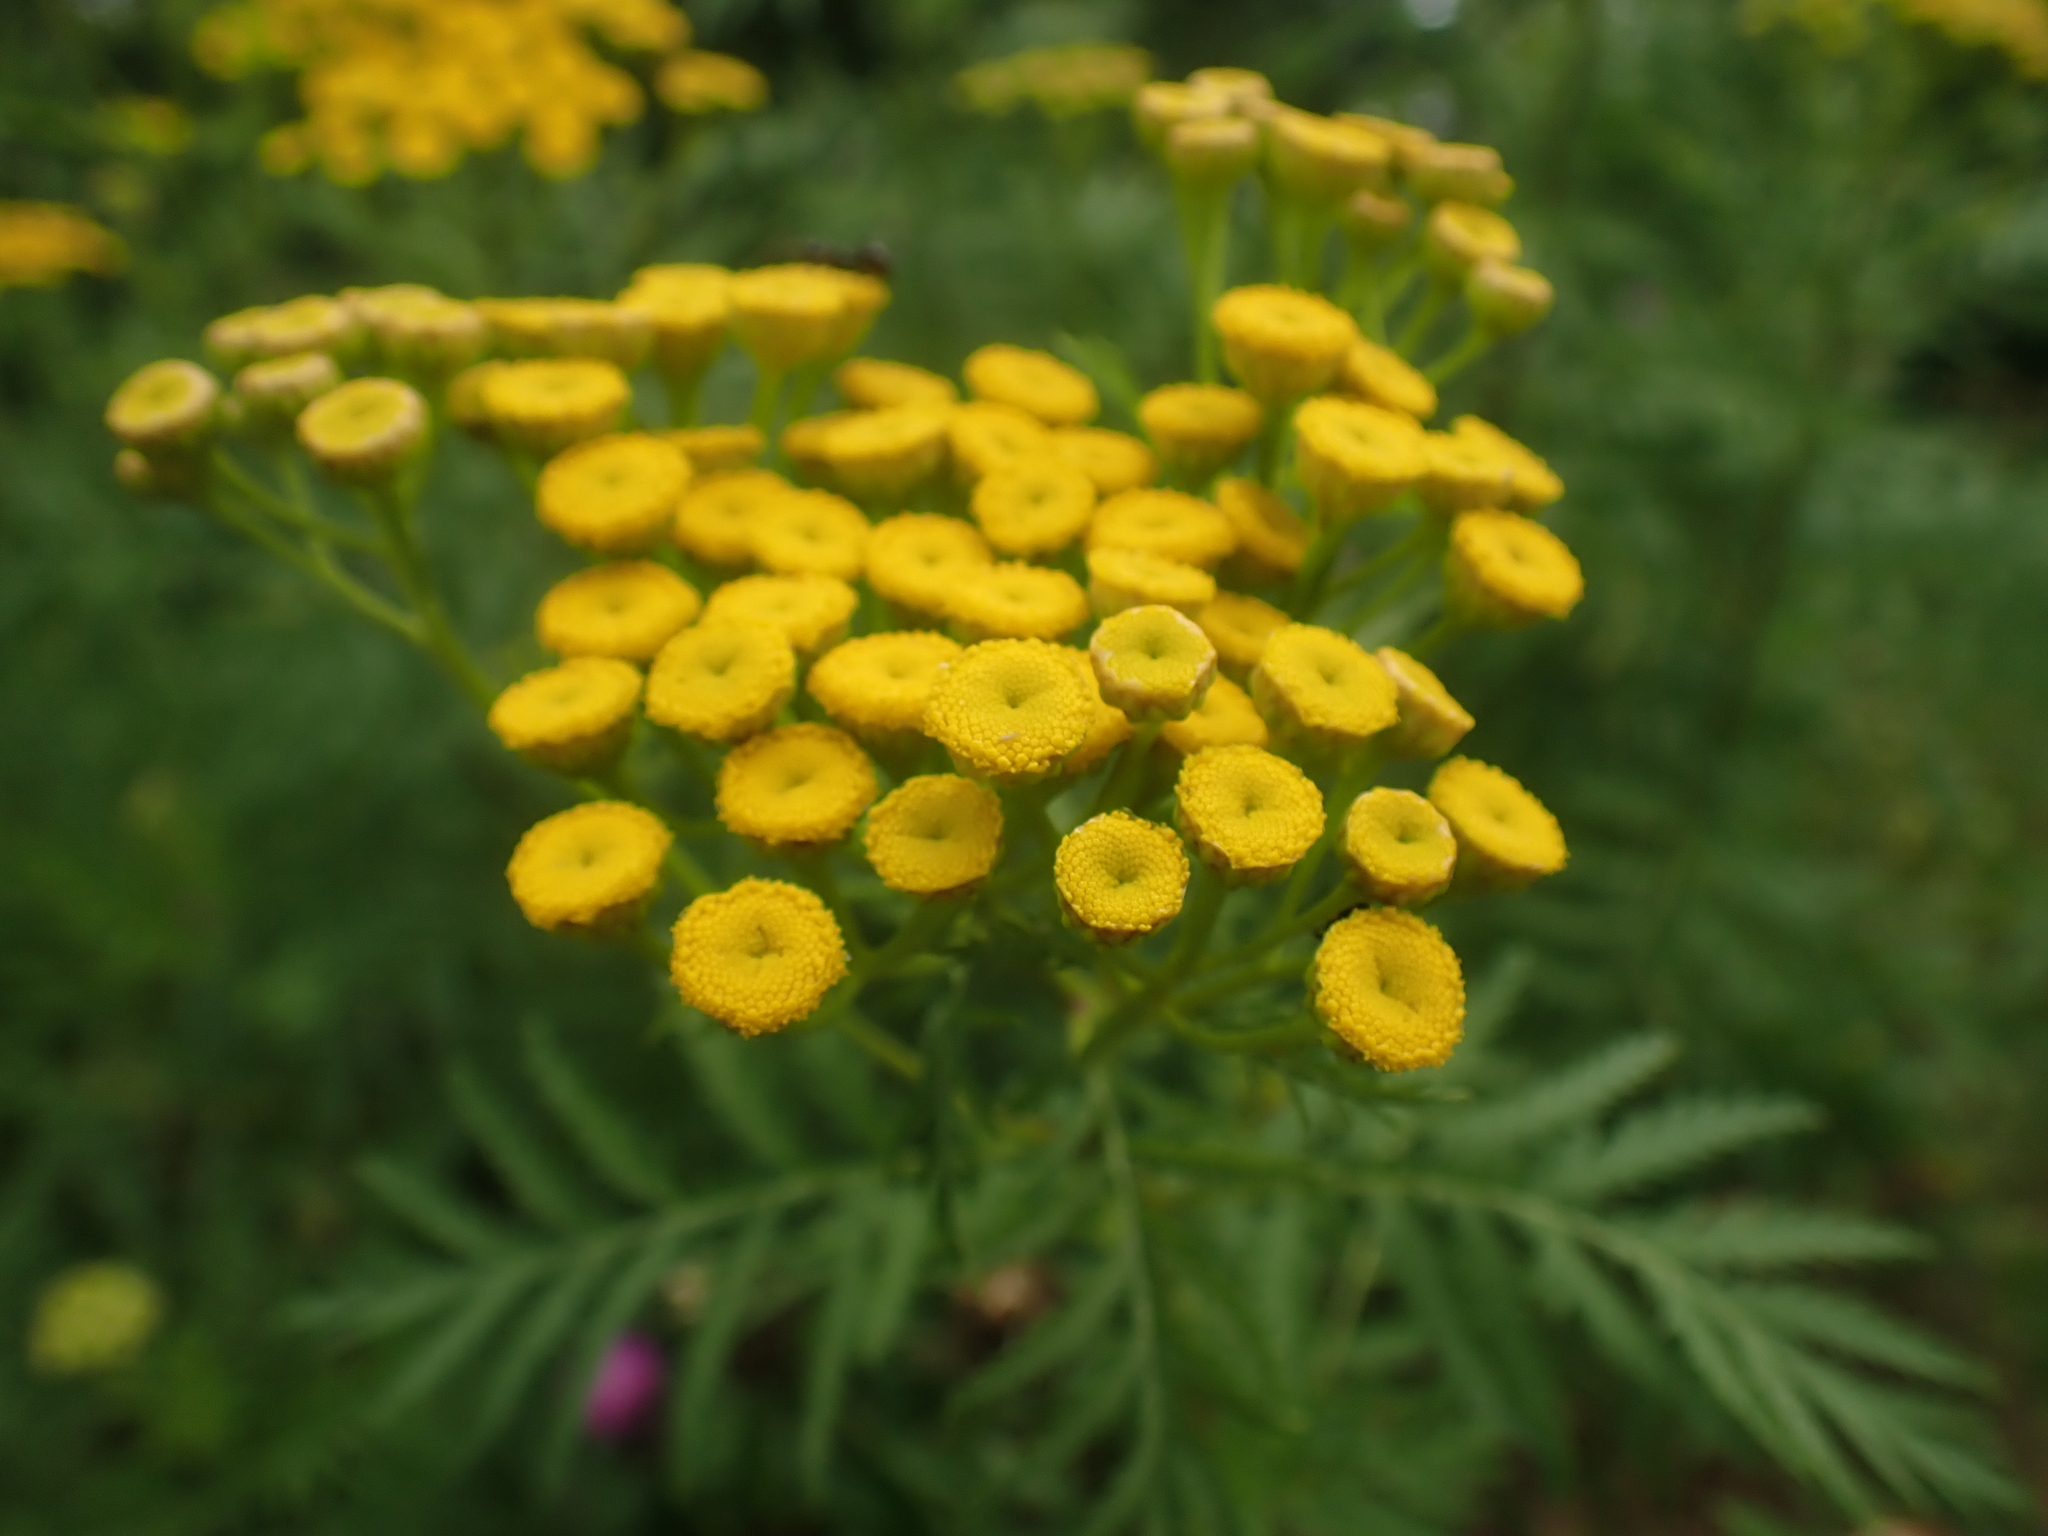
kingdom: Plantae
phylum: Tracheophyta
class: Magnoliopsida
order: Asterales
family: Asteraceae
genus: Tanacetum
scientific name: Tanacetum vulgare
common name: Common tansy
